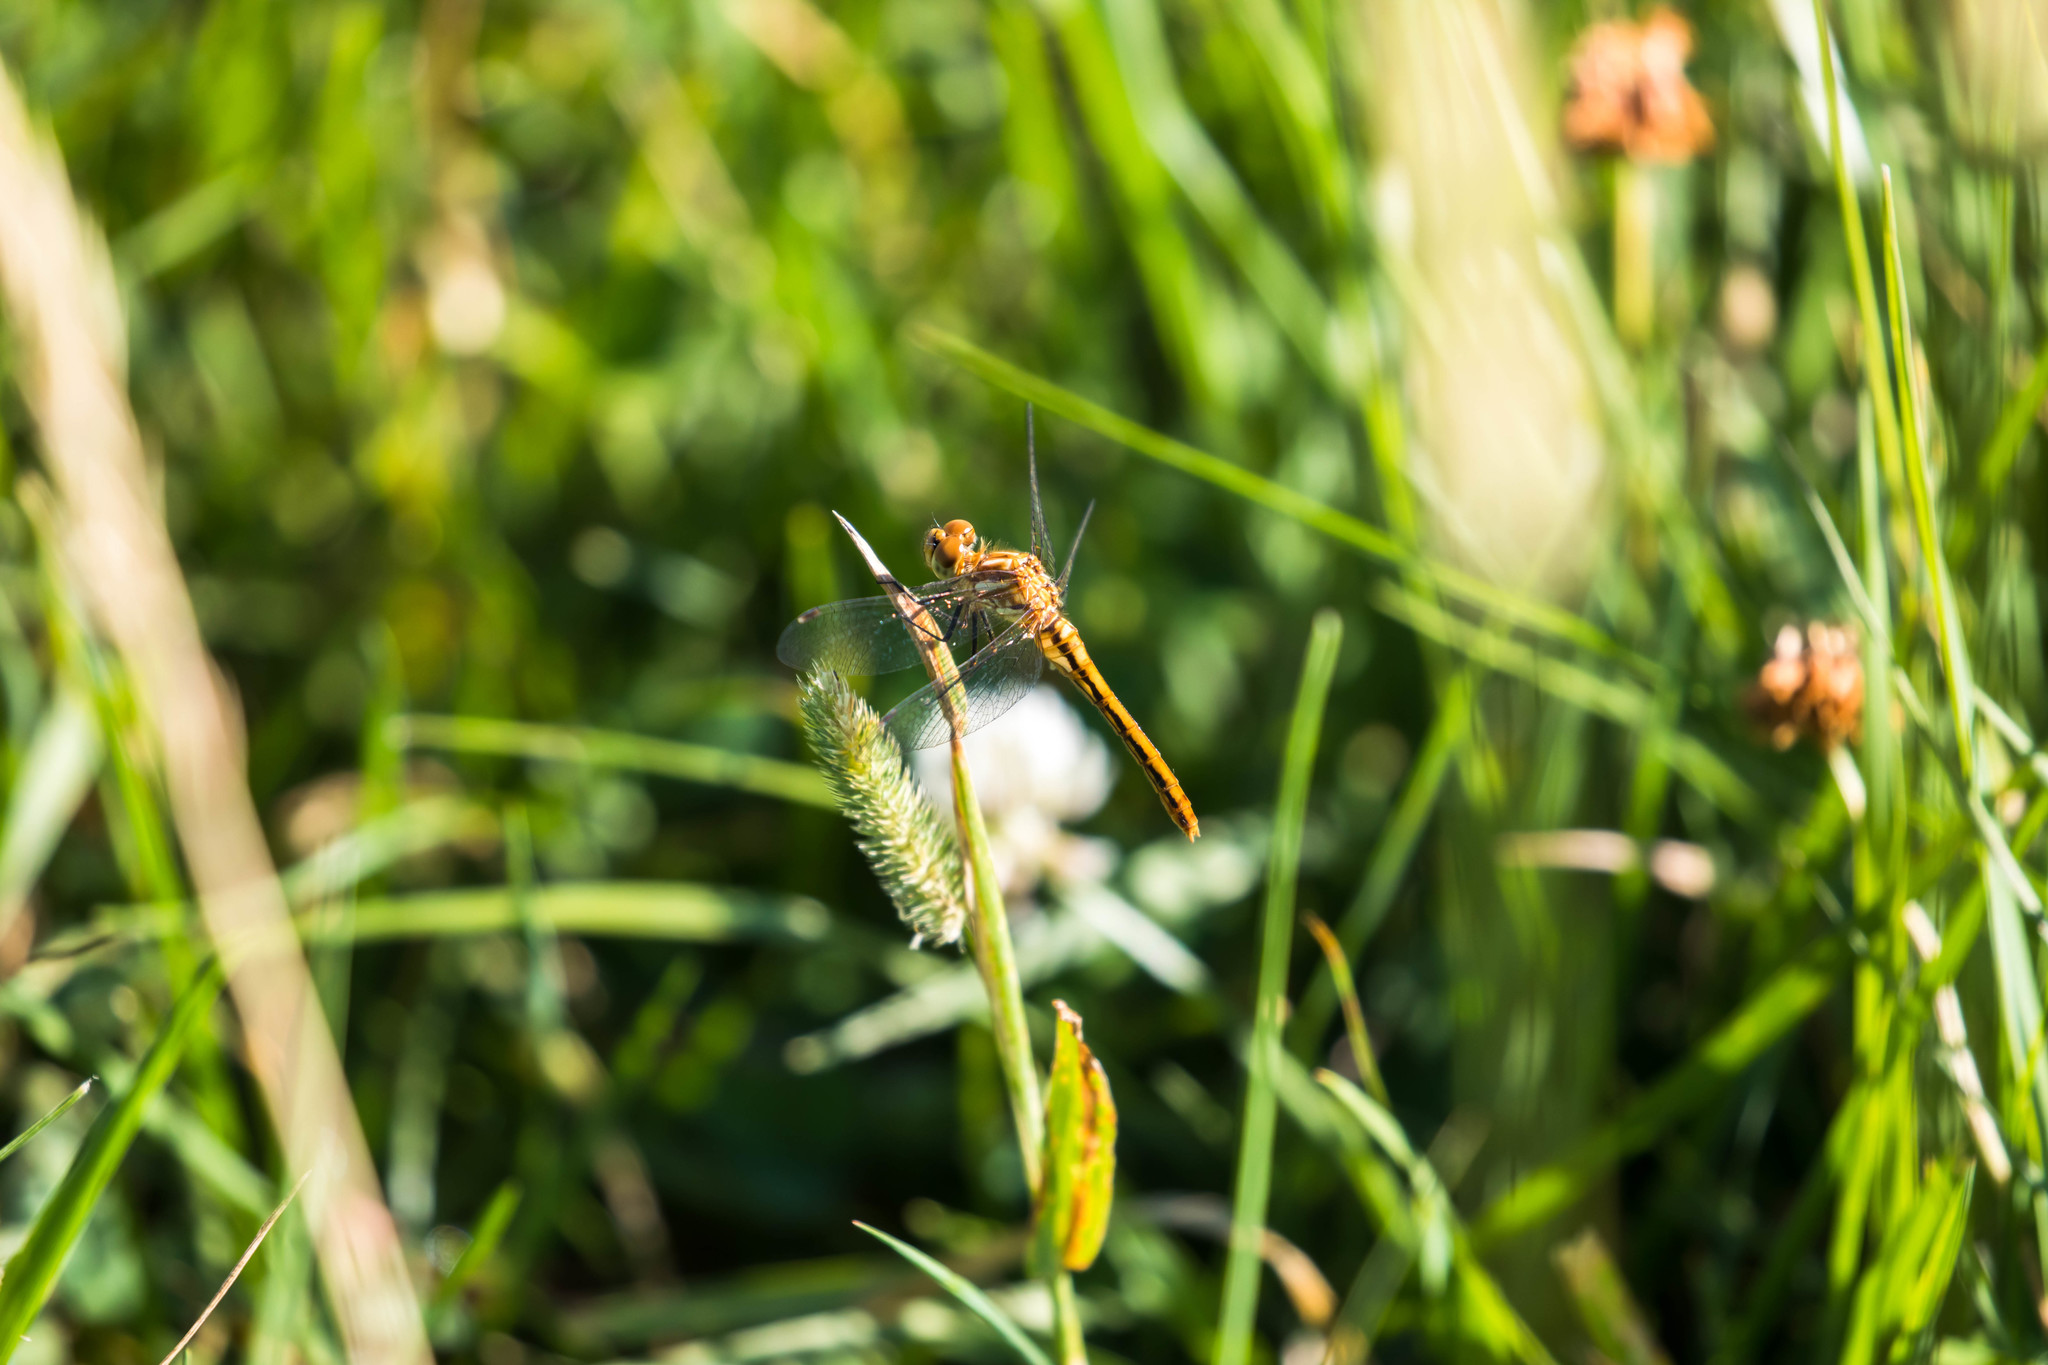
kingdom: Animalia
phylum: Arthropoda
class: Insecta
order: Odonata
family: Libellulidae
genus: Sympetrum
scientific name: Sympetrum pallipes
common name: Striped meadowhawk
